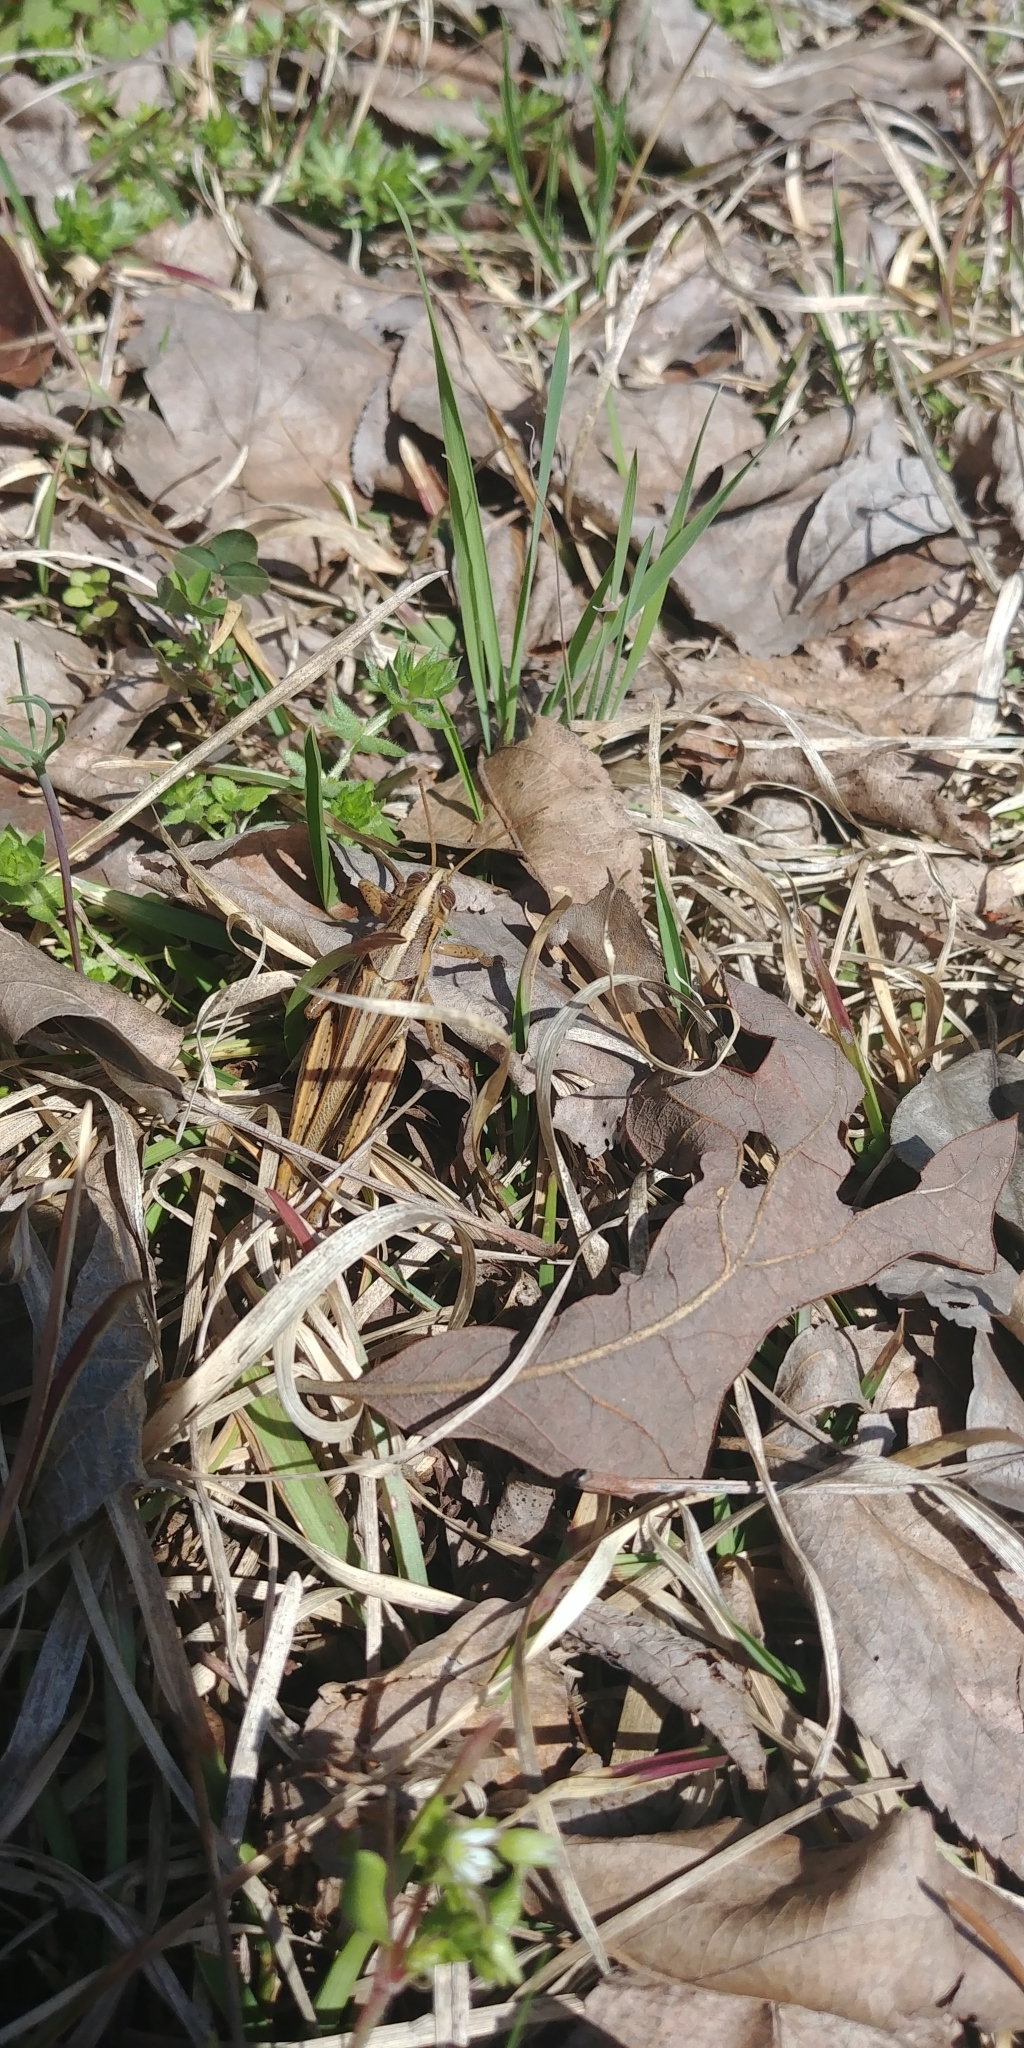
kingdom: Animalia
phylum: Arthropoda
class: Insecta
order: Orthoptera
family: Acrididae
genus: Schistocerca
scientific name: Schistocerca americana
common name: American bird locust
